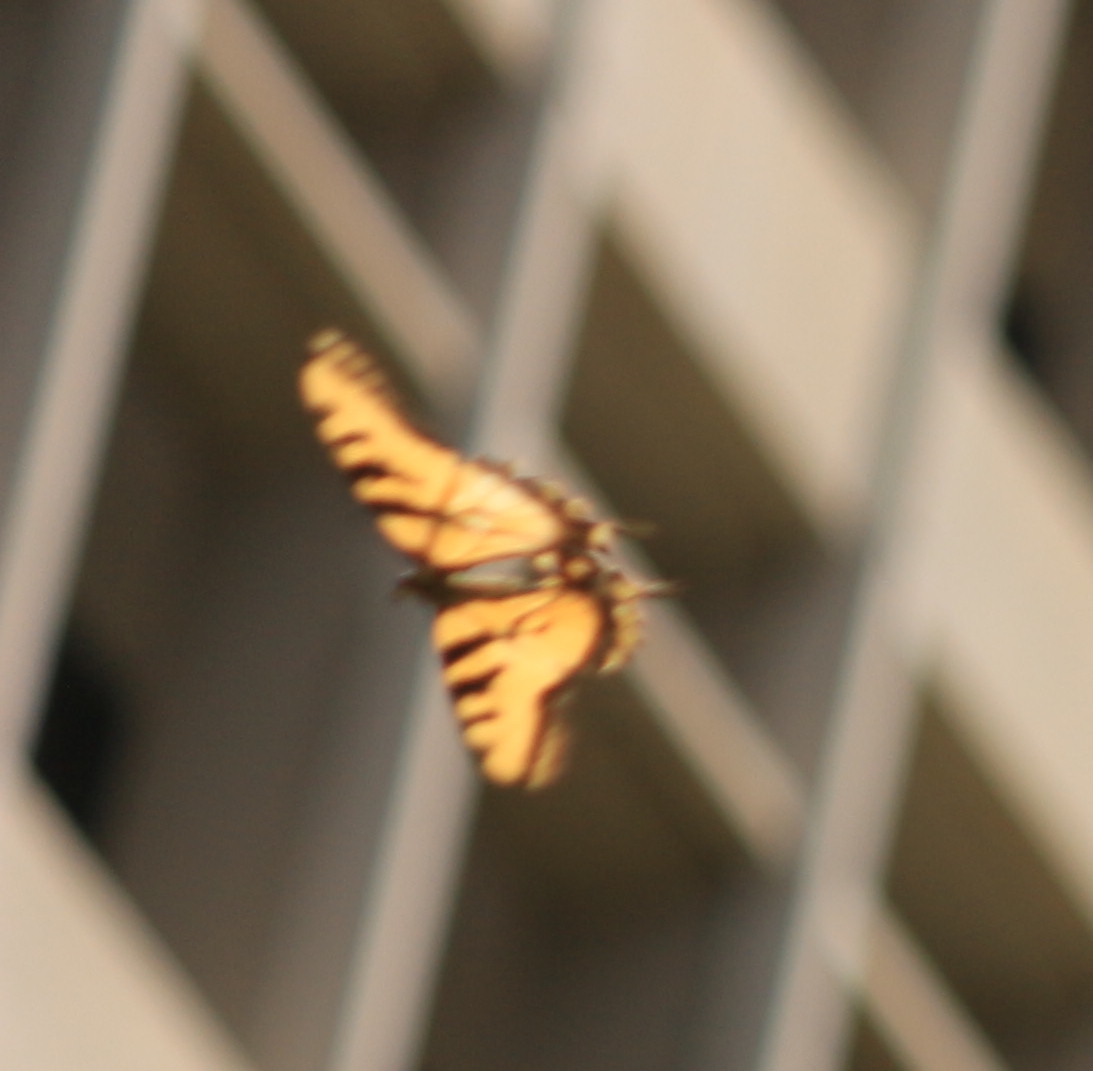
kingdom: Animalia
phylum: Arthropoda
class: Insecta
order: Lepidoptera
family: Papilionidae
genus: Papilio
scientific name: Papilio rutulus
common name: Western tiger swallowtail
